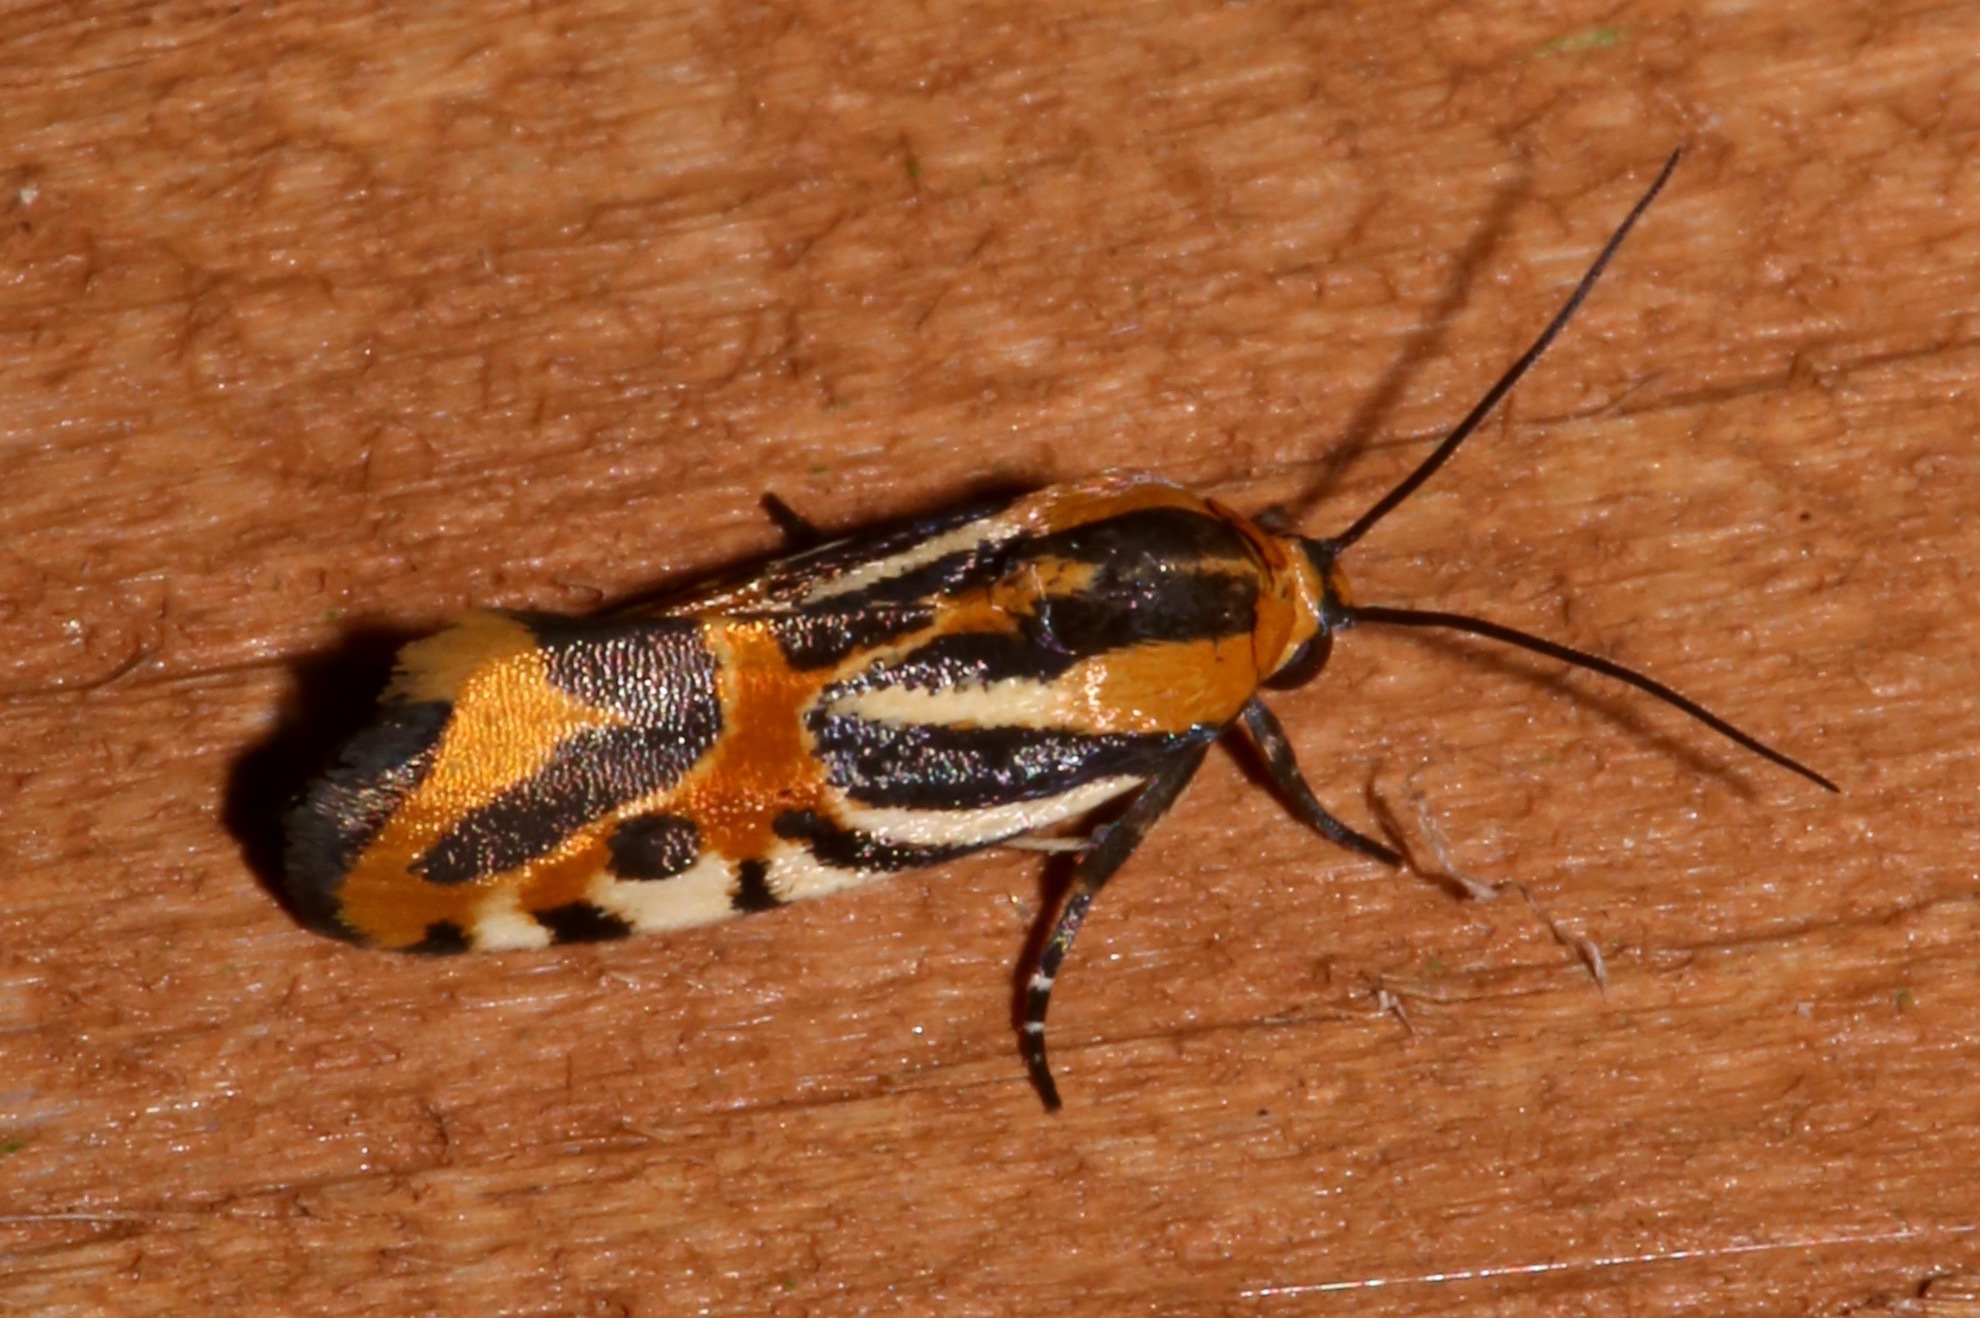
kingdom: Animalia
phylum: Arthropoda
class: Insecta
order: Lepidoptera
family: Noctuidae
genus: Acontia
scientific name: Acontia onagrus
